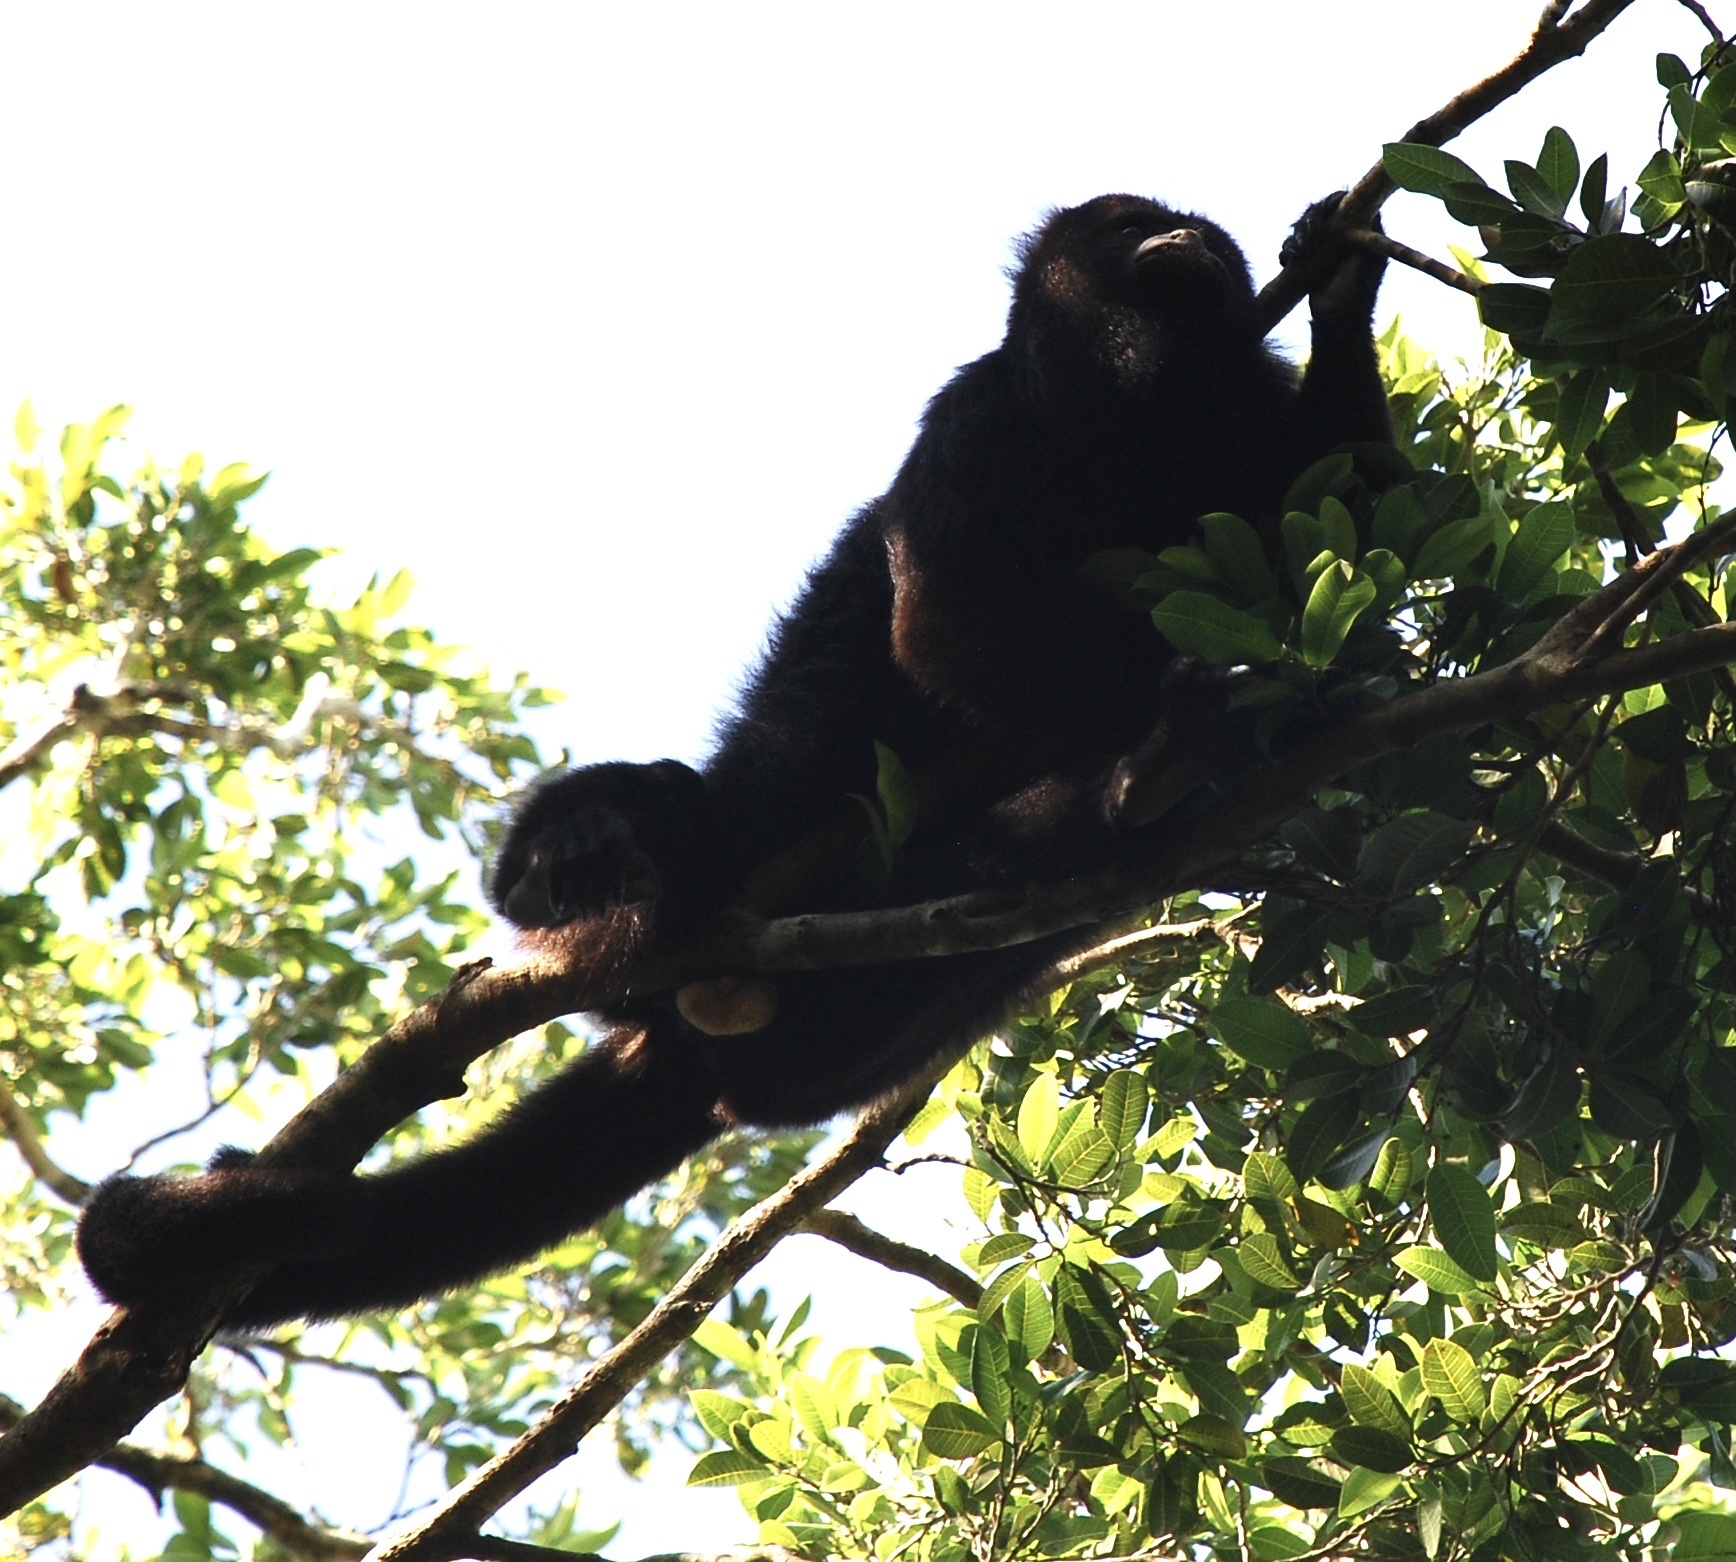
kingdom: Animalia
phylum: Chordata
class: Mammalia
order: Primates
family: Atelidae
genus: Alouatta
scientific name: Alouatta pigra
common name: Guatemalan black howler
